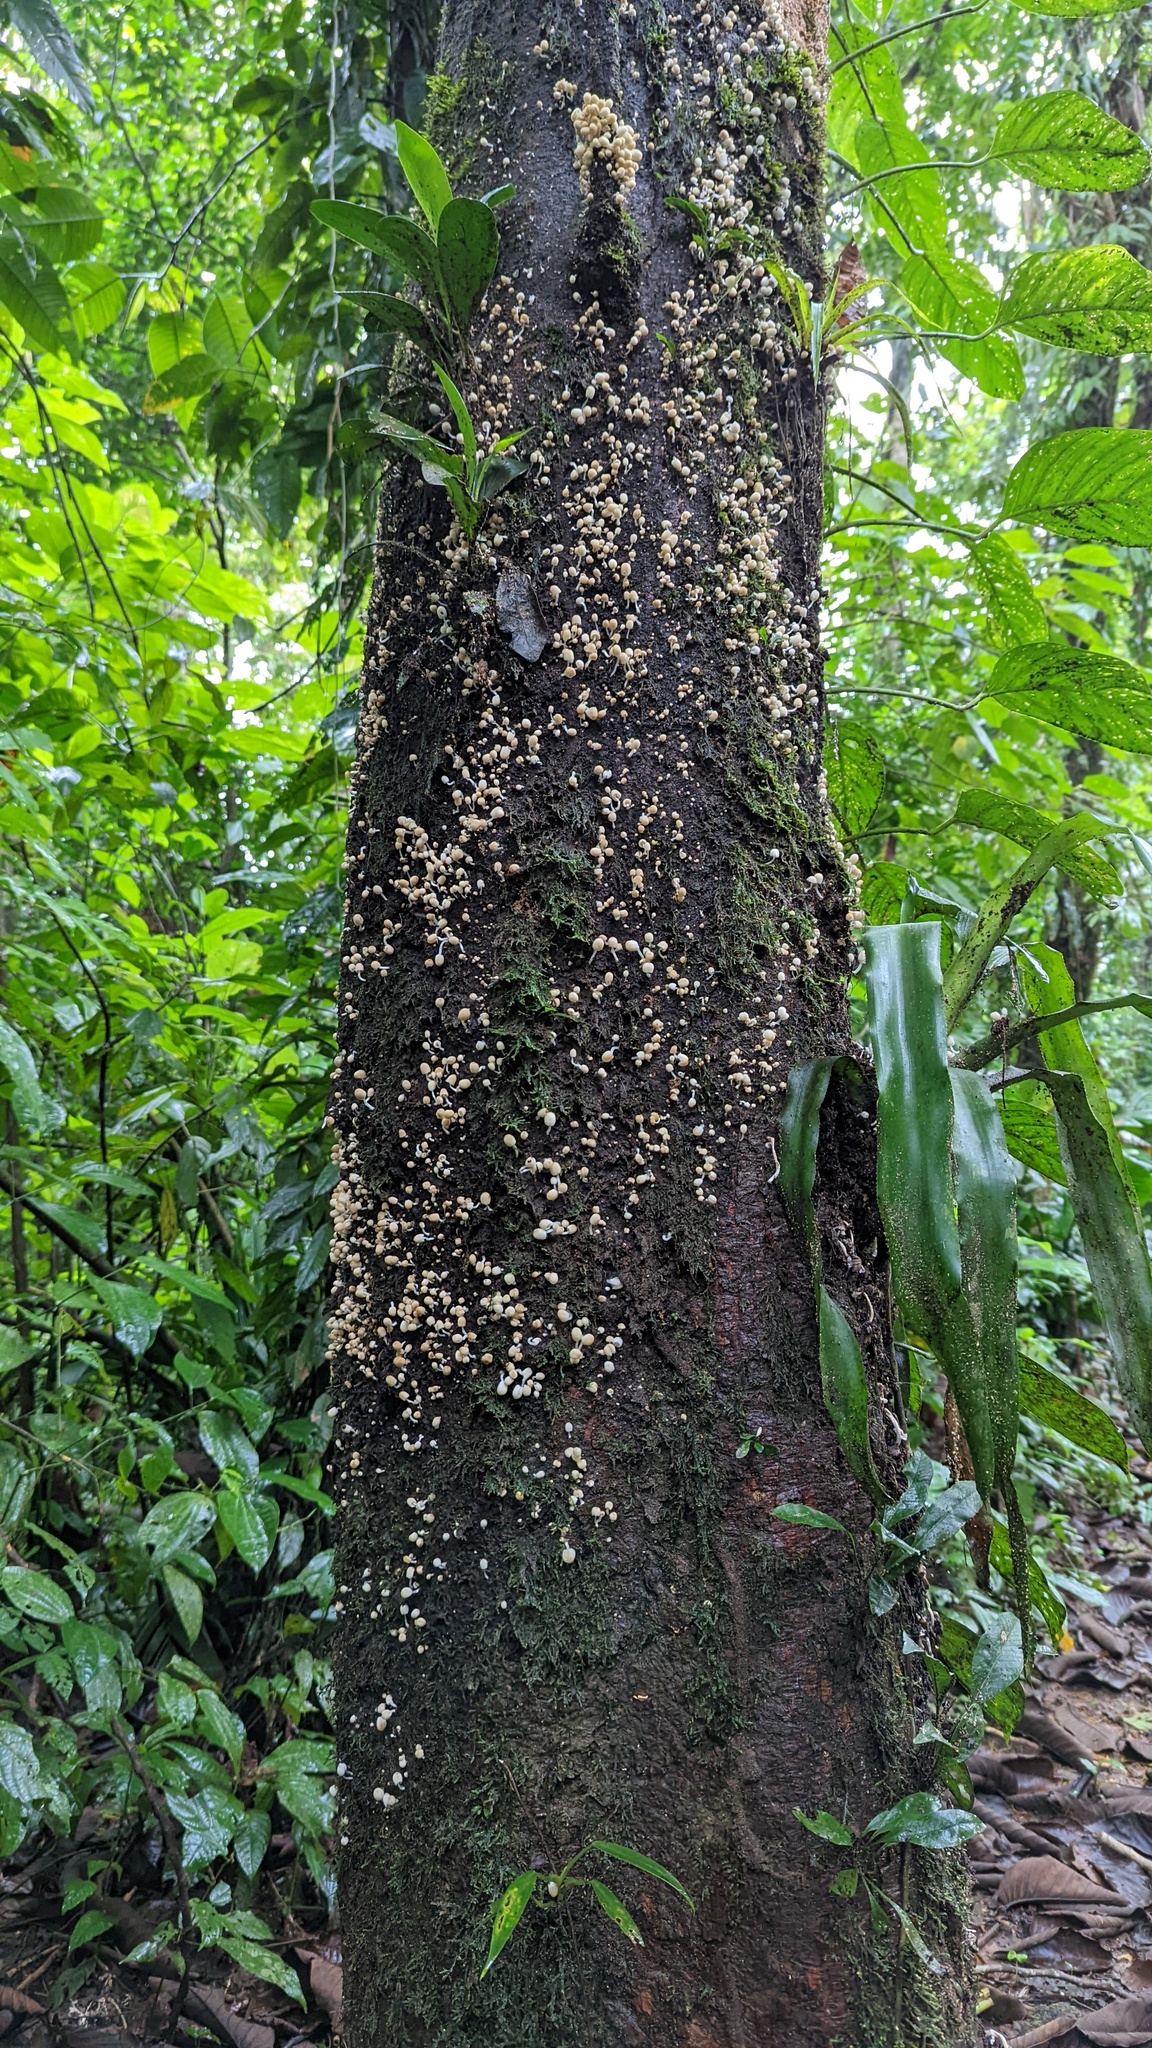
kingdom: Fungi
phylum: Basidiomycota
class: Agaricomycetes
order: Agaricales
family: Psathyrellaceae
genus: Coprinellus
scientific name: Coprinellus
